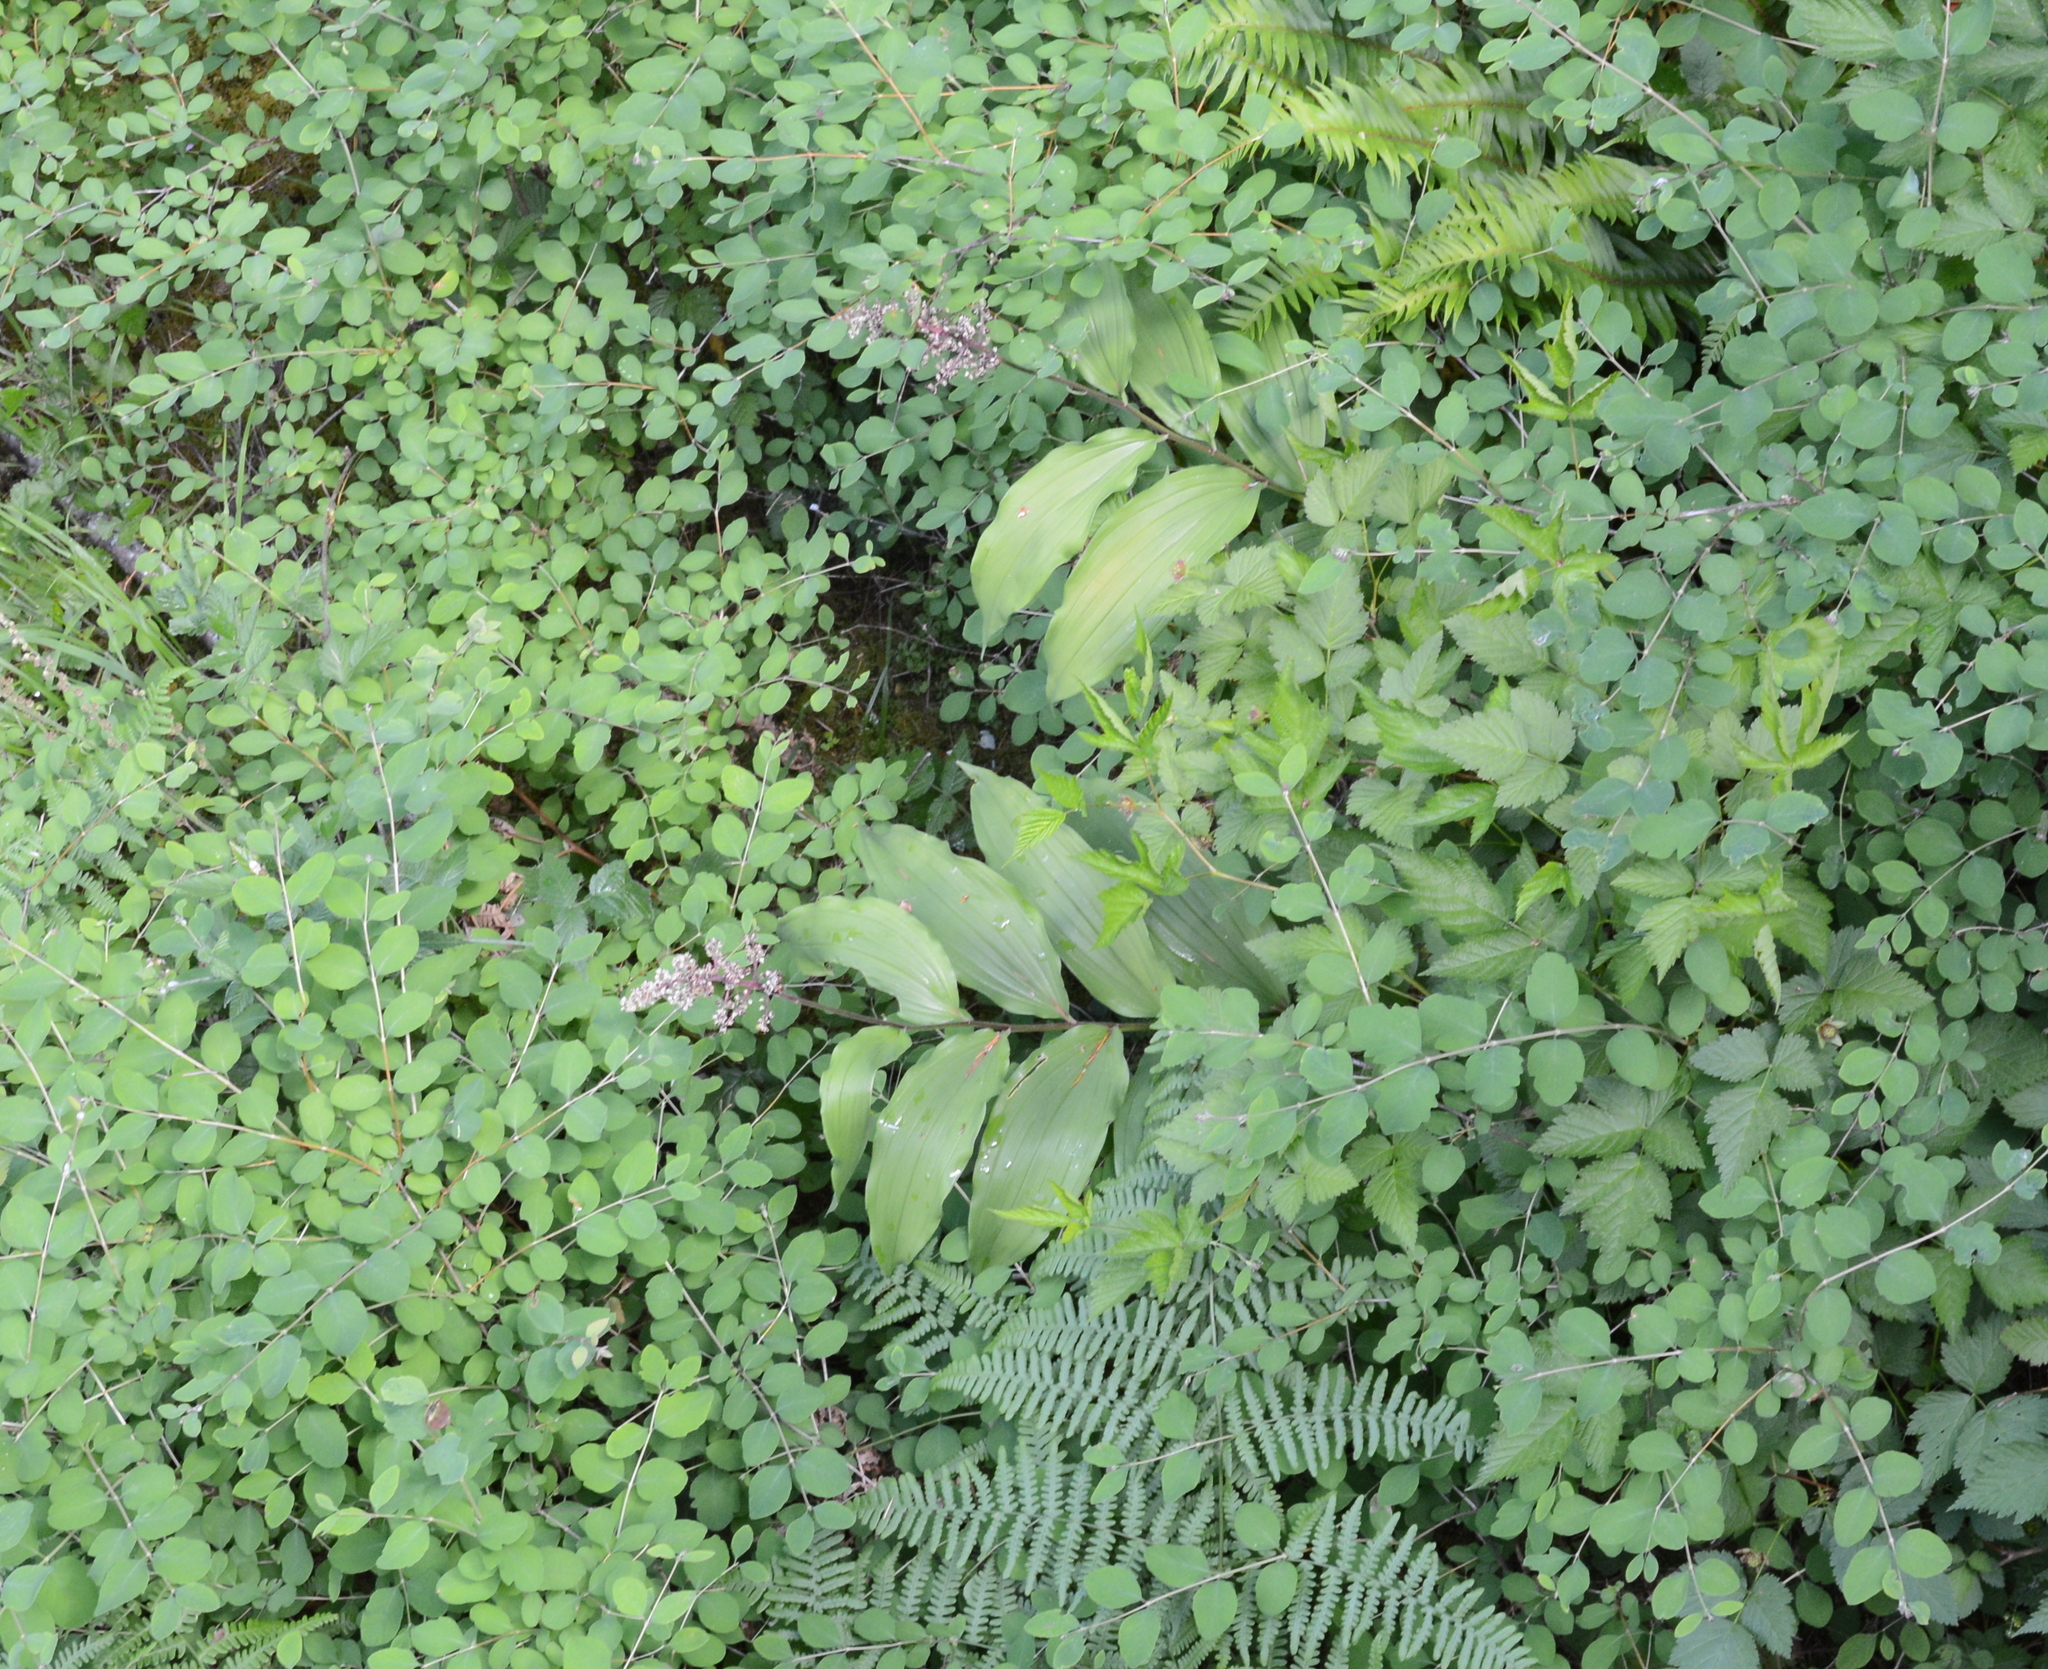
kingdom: Plantae
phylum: Tracheophyta
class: Liliopsida
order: Asparagales
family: Asparagaceae
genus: Maianthemum
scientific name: Maianthemum racemosum
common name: False spikenard
